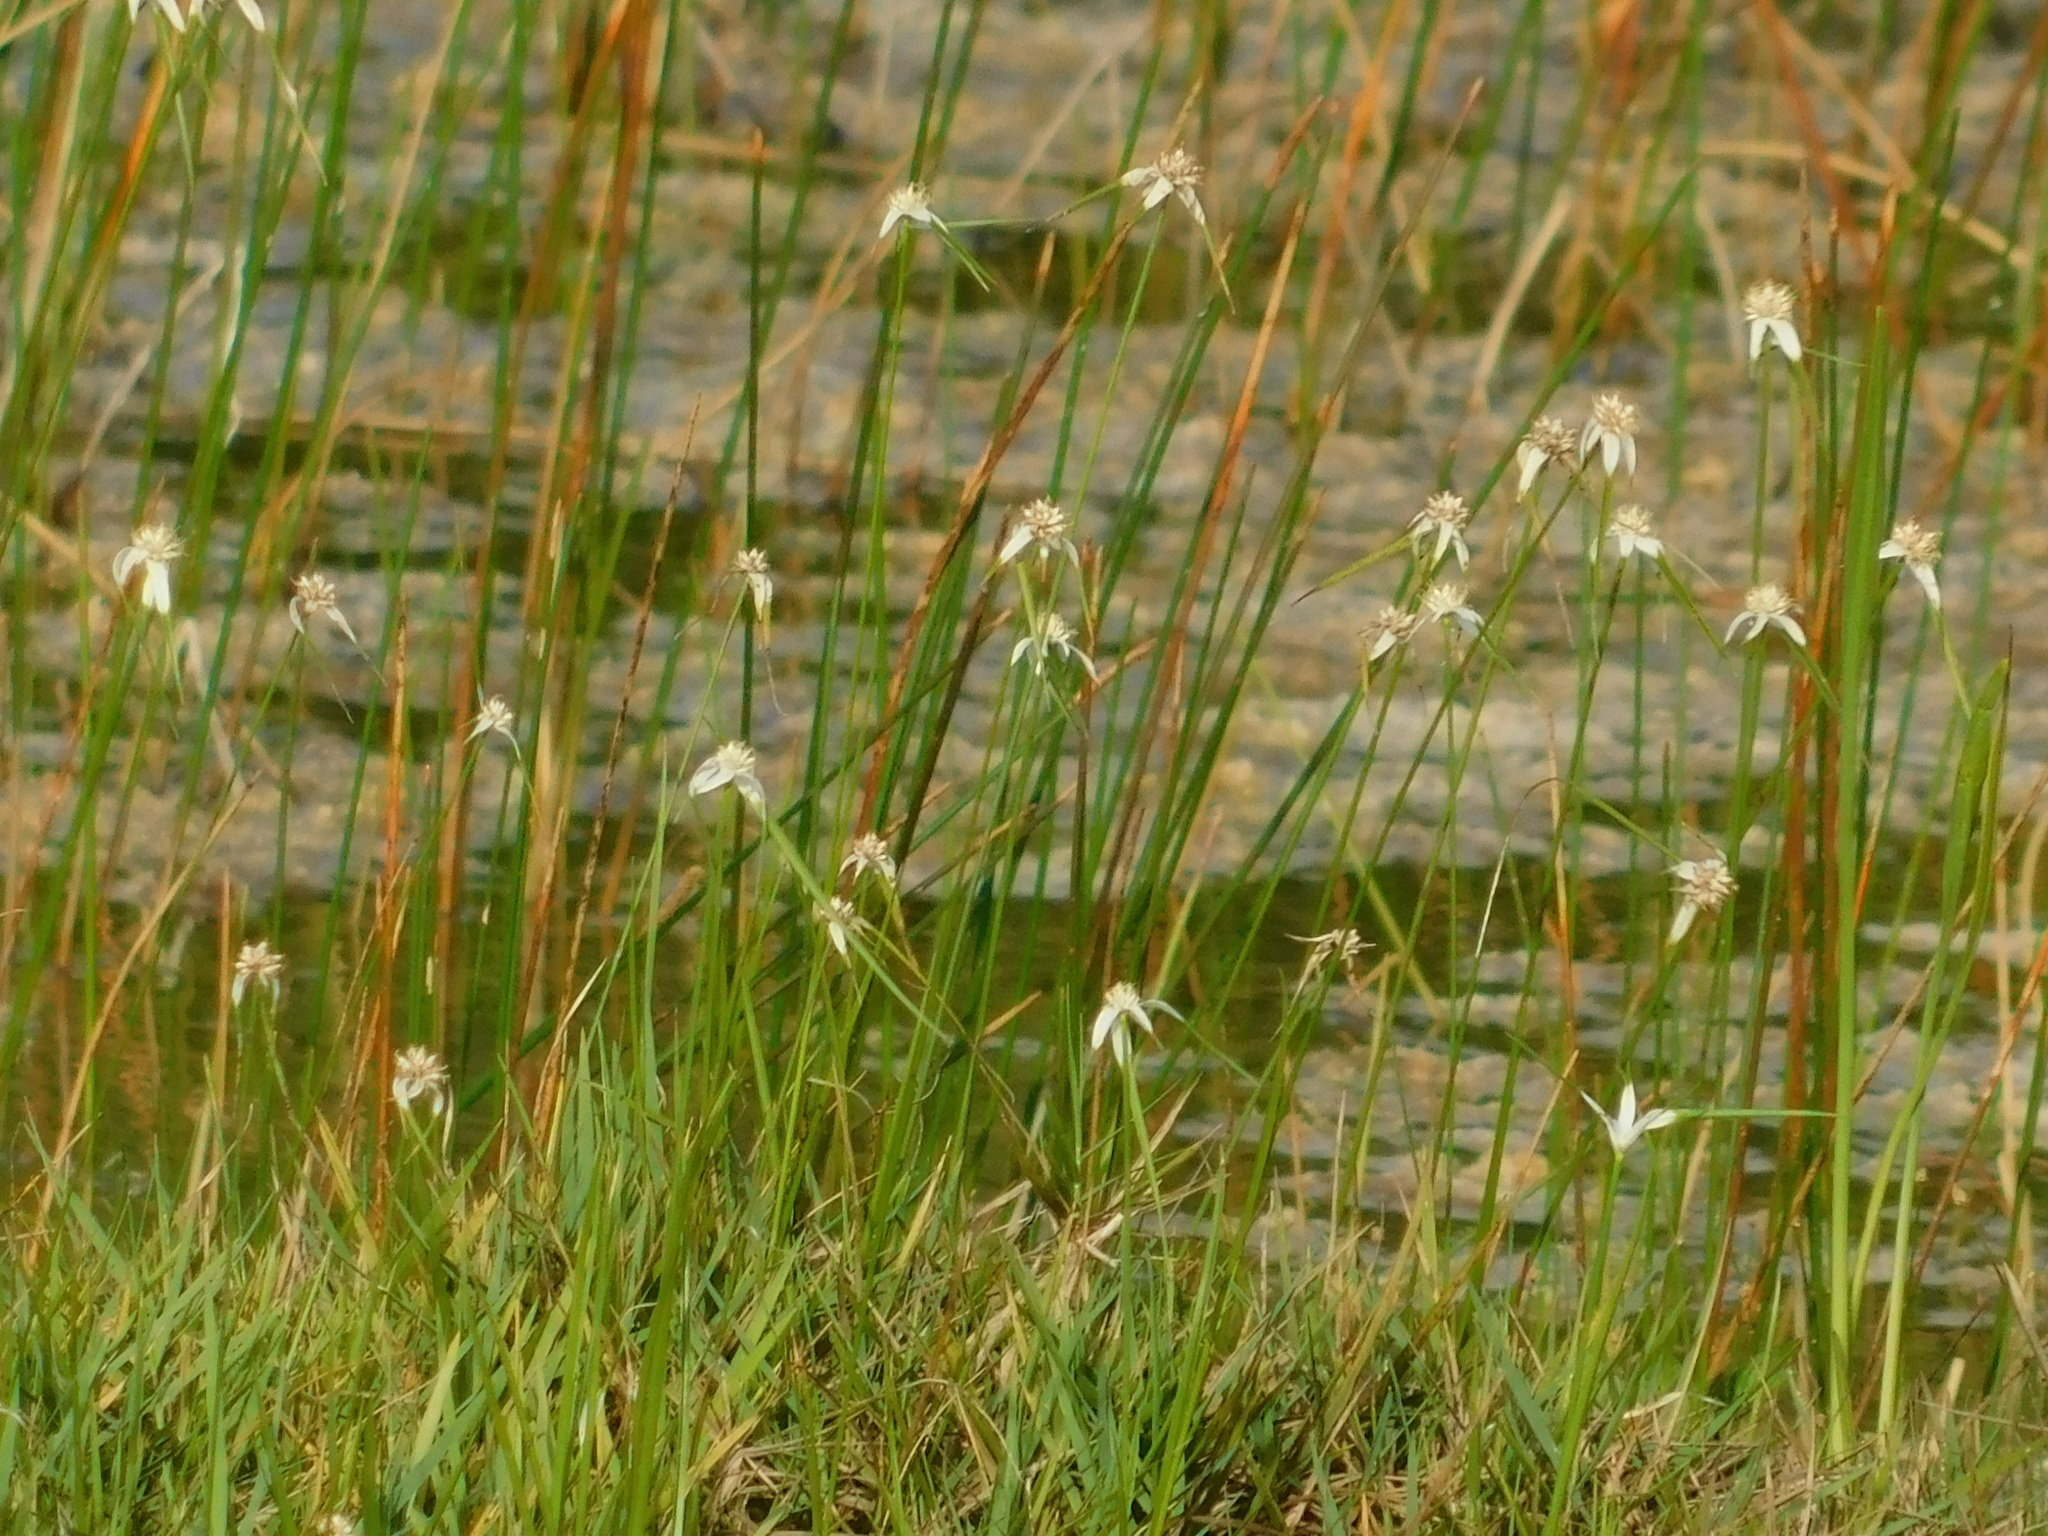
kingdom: Plantae
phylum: Tracheophyta
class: Liliopsida
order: Poales
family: Cyperaceae
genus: Rhynchospora
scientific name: Rhynchospora colorata
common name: Star sedge
